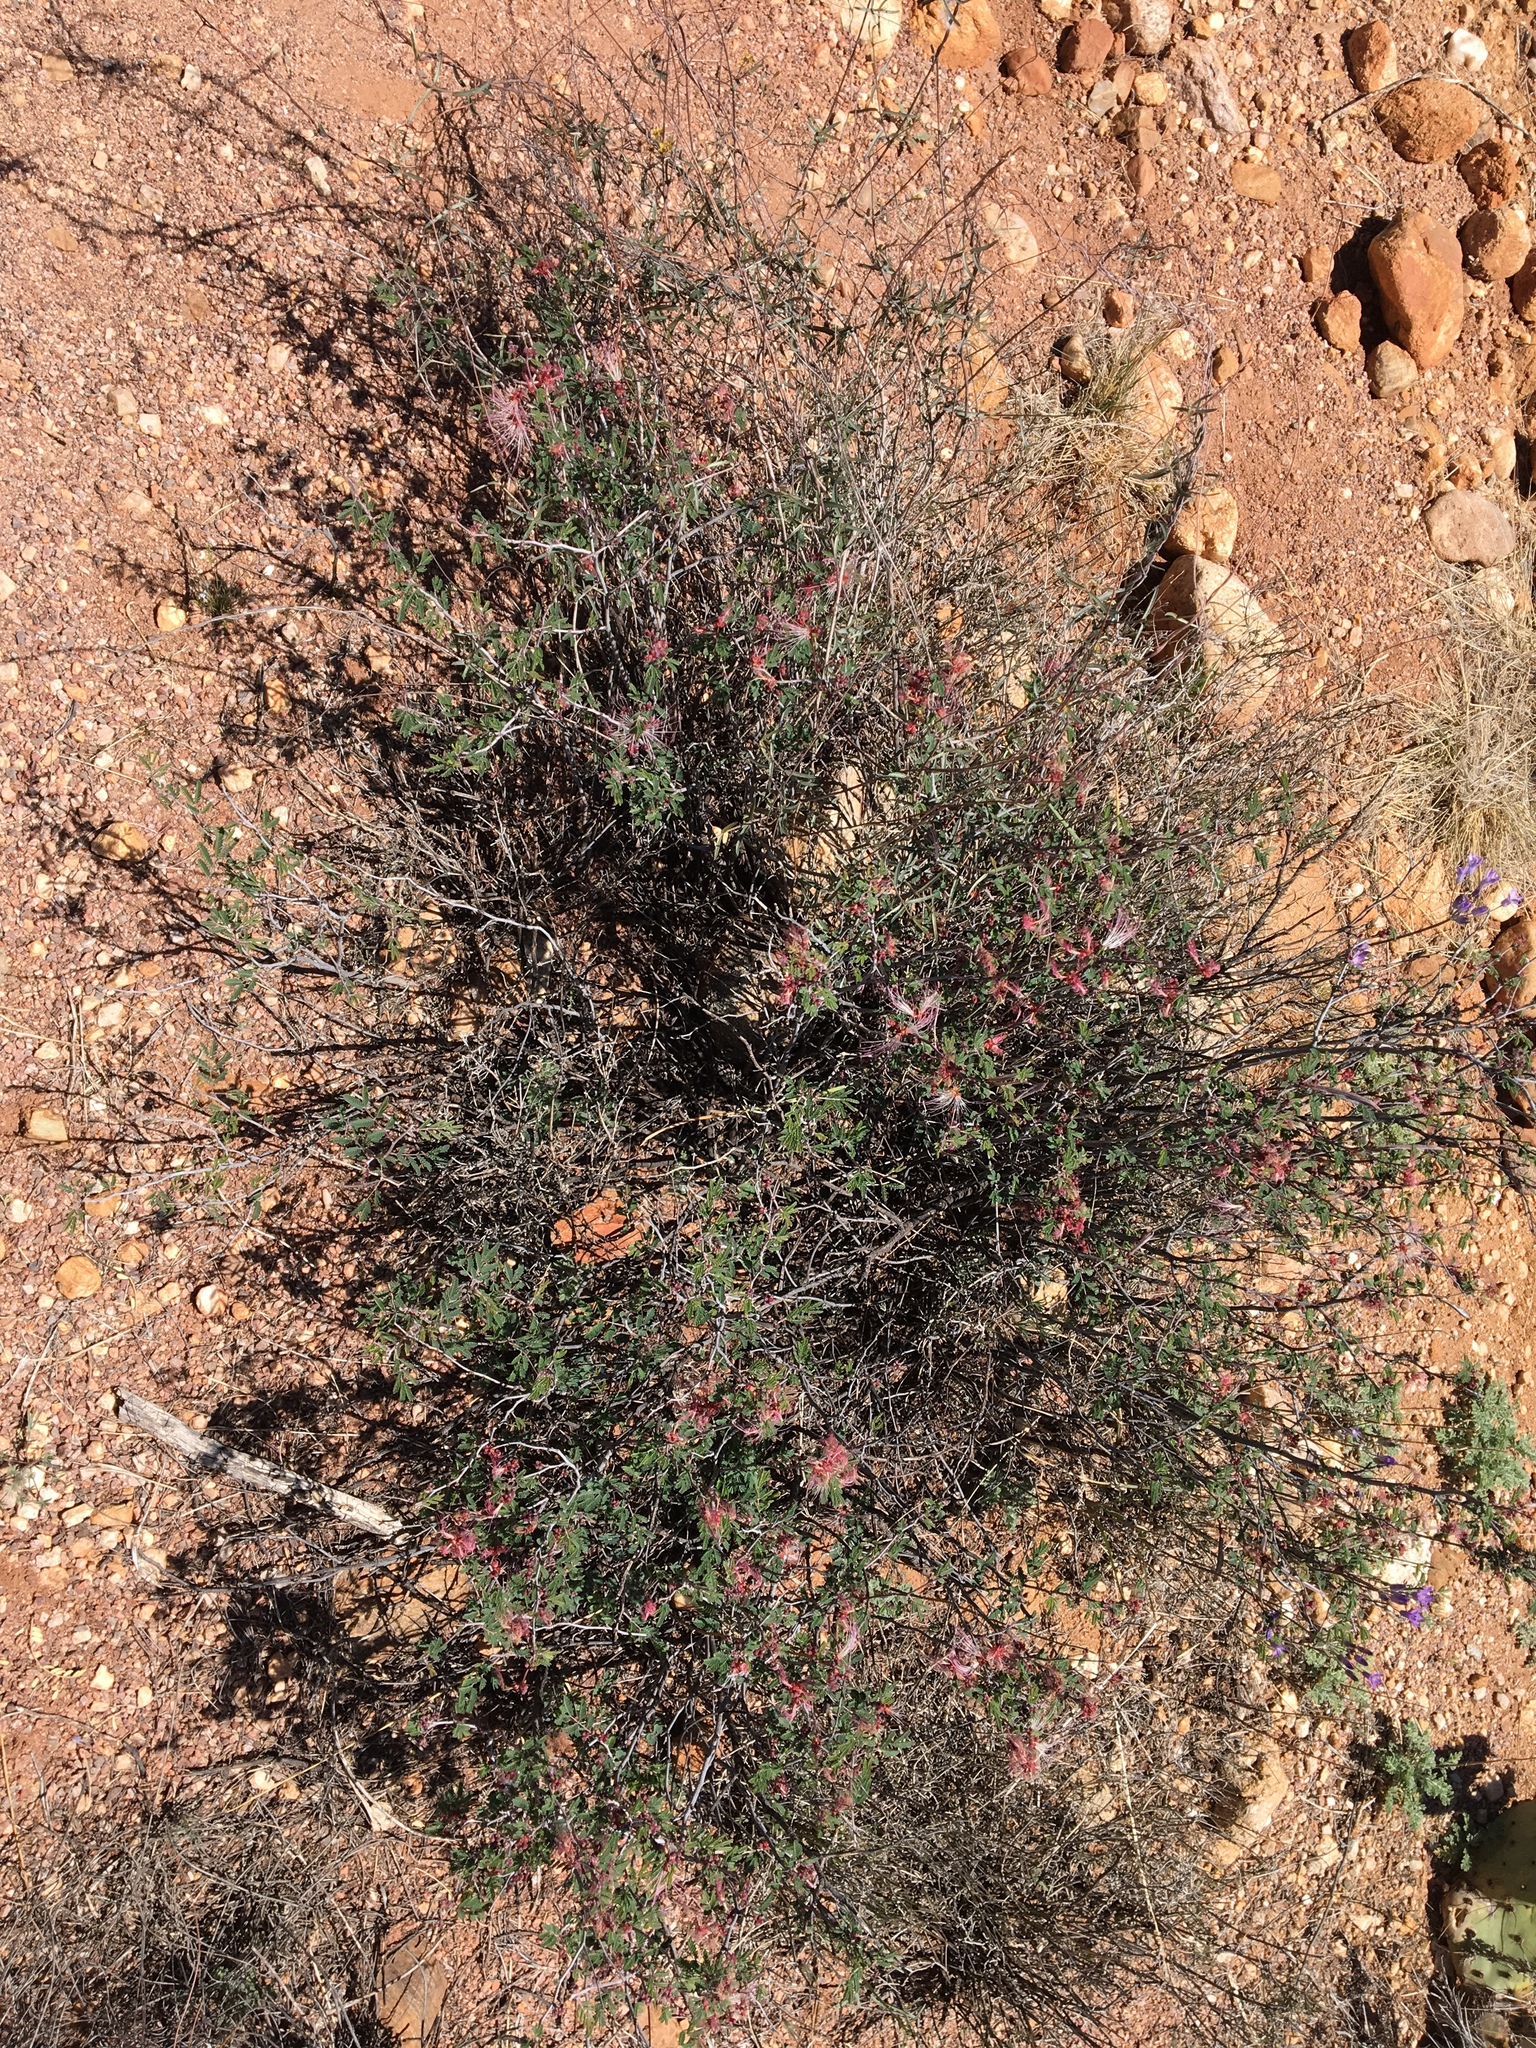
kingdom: Plantae
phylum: Tracheophyta
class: Magnoliopsida
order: Fabales
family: Fabaceae
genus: Calliandra
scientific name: Calliandra eriophylla
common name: Fairy-duster
